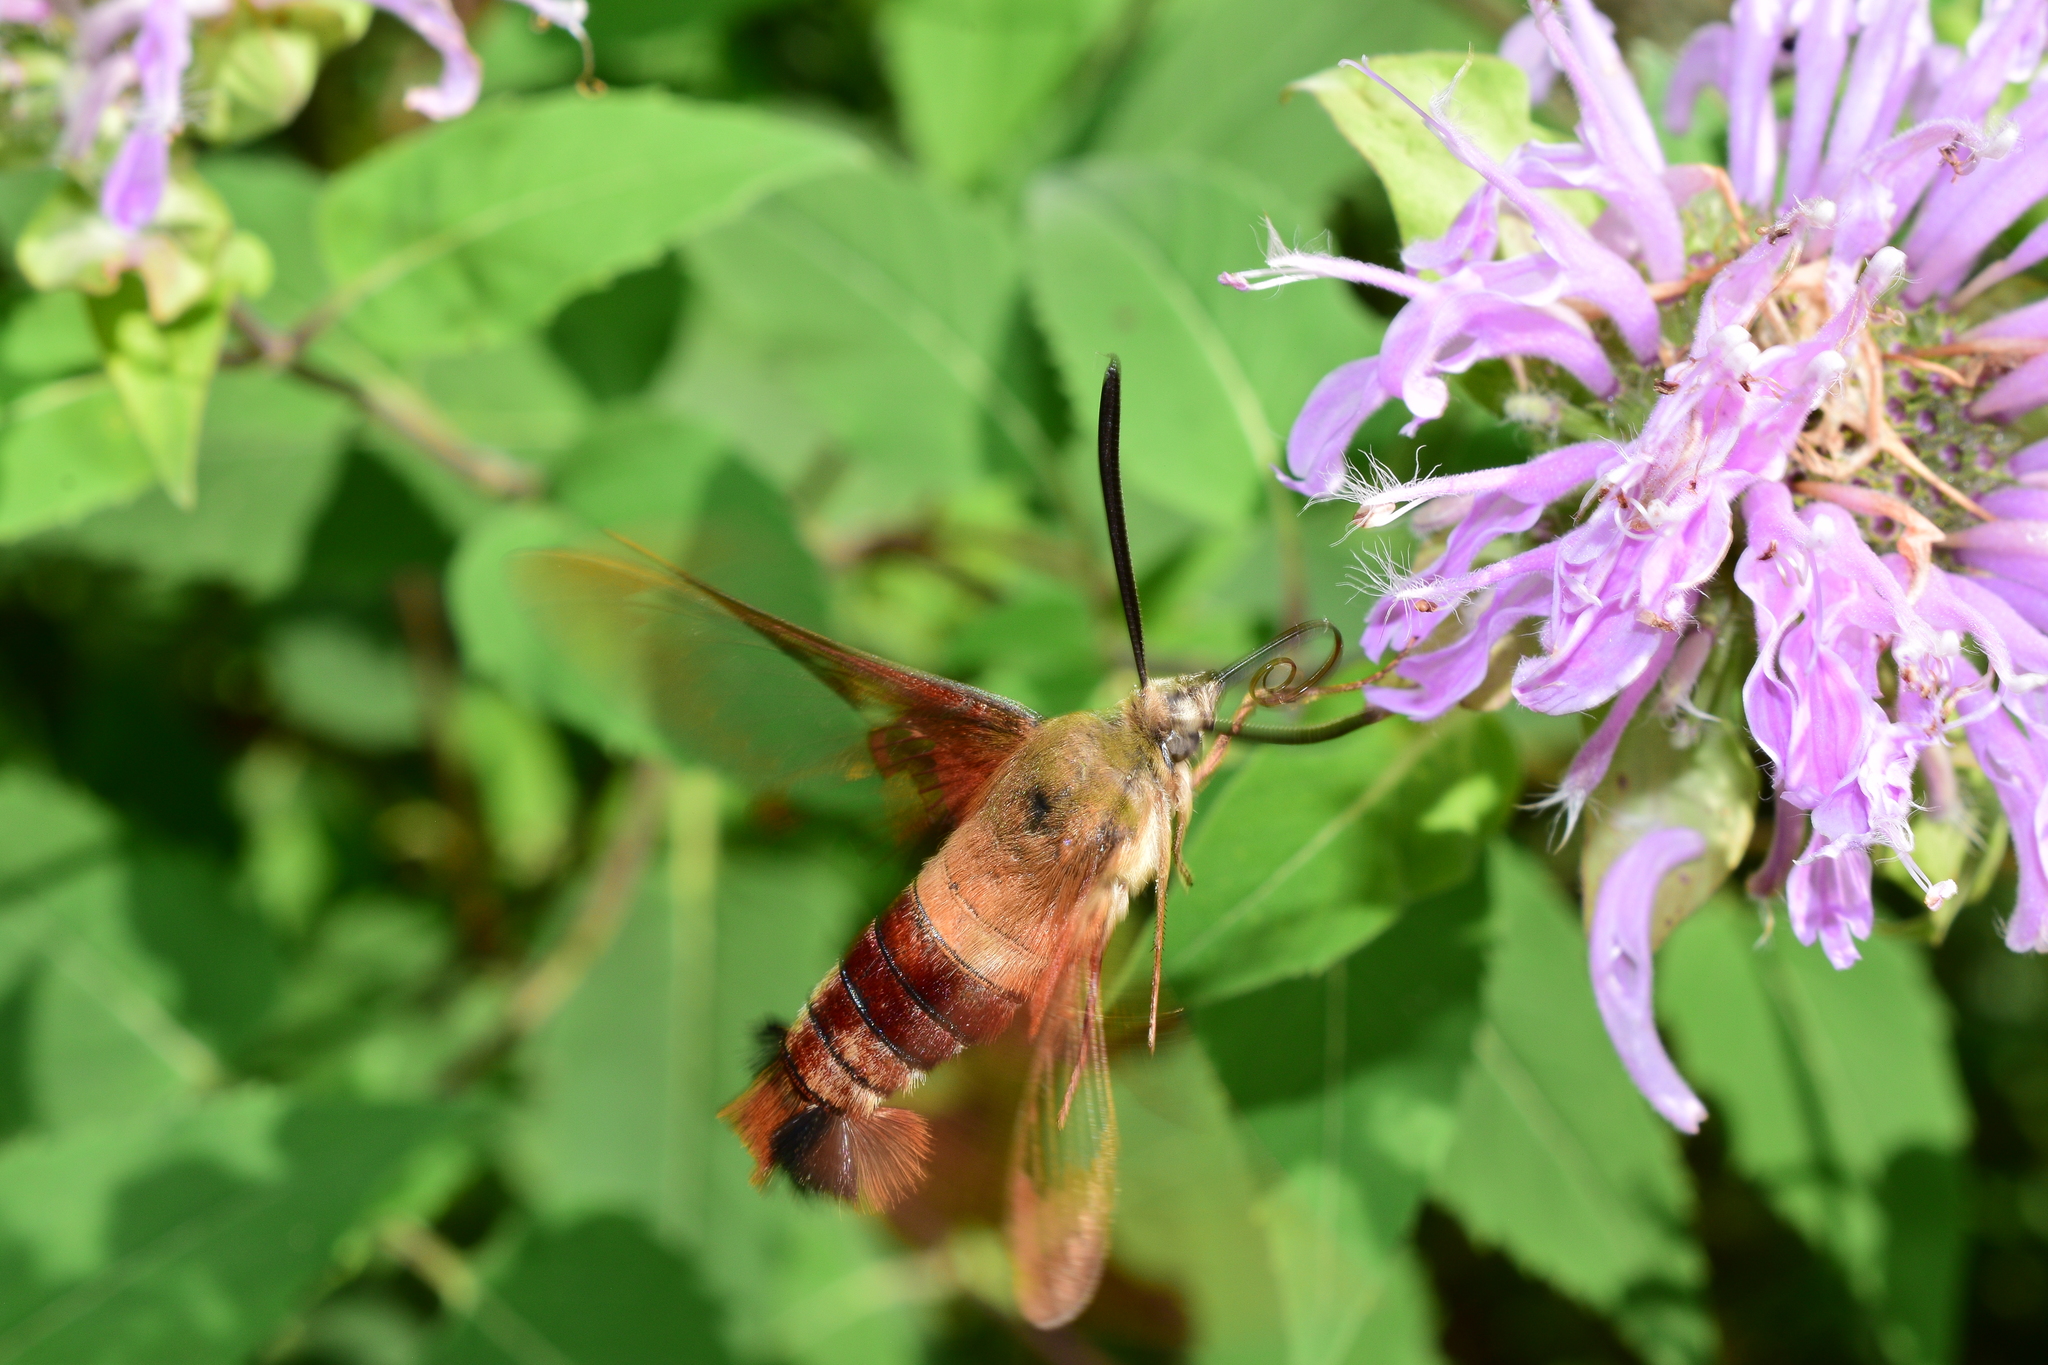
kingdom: Animalia
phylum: Arthropoda
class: Insecta
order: Lepidoptera
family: Sphingidae
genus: Hemaris
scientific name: Hemaris thysbe
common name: Common clear-wing
